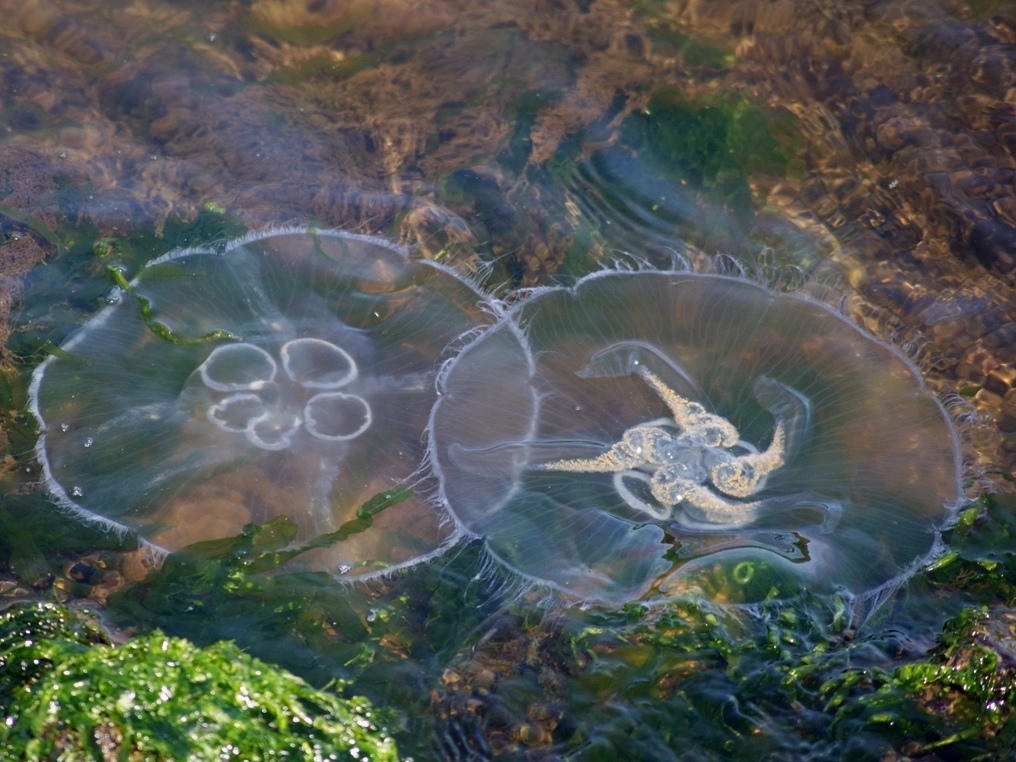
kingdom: Animalia
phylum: Cnidaria
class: Scyphozoa
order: Semaeostomeae
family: Ulmaridae
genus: Aurelia
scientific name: Aurelia aurita
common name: Moon jellyfish
